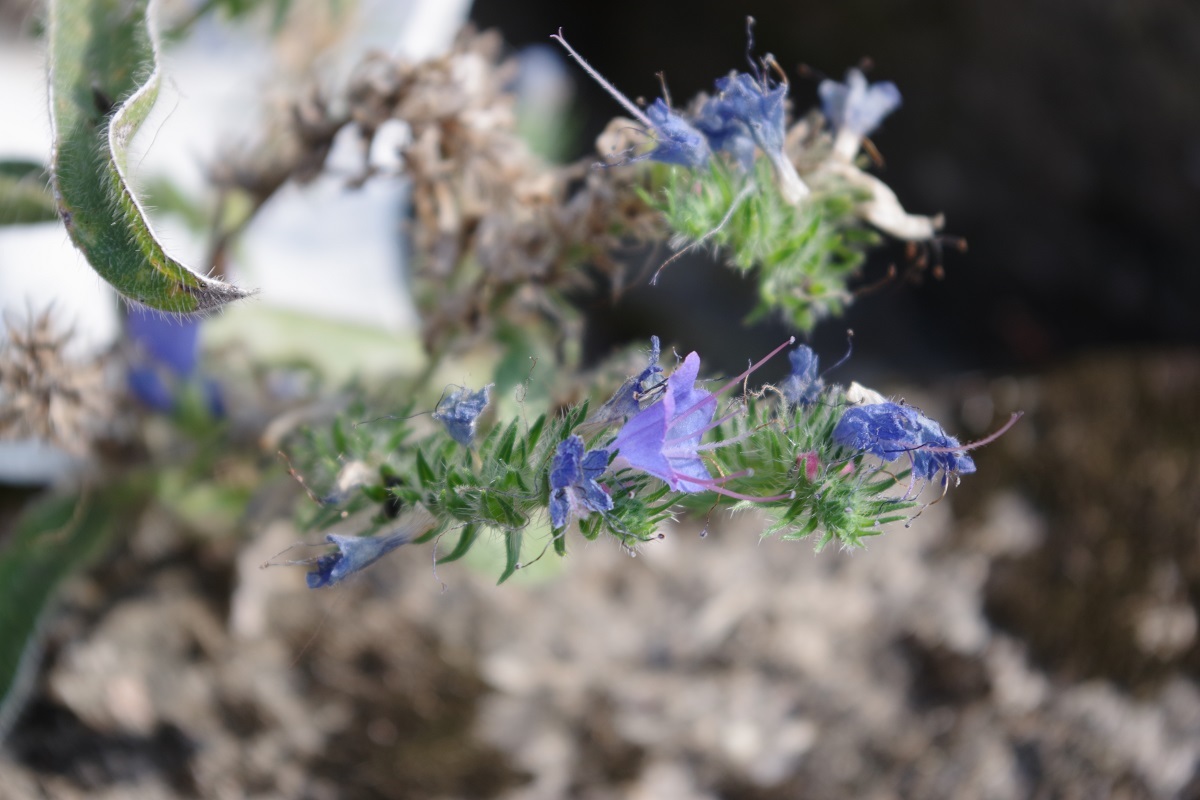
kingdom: Plantae
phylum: Tracheophyta
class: Magnoliopsida
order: Boraginales
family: Boraginaceae
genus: Echium
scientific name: Echium vulgare
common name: Common viper's bugloss
